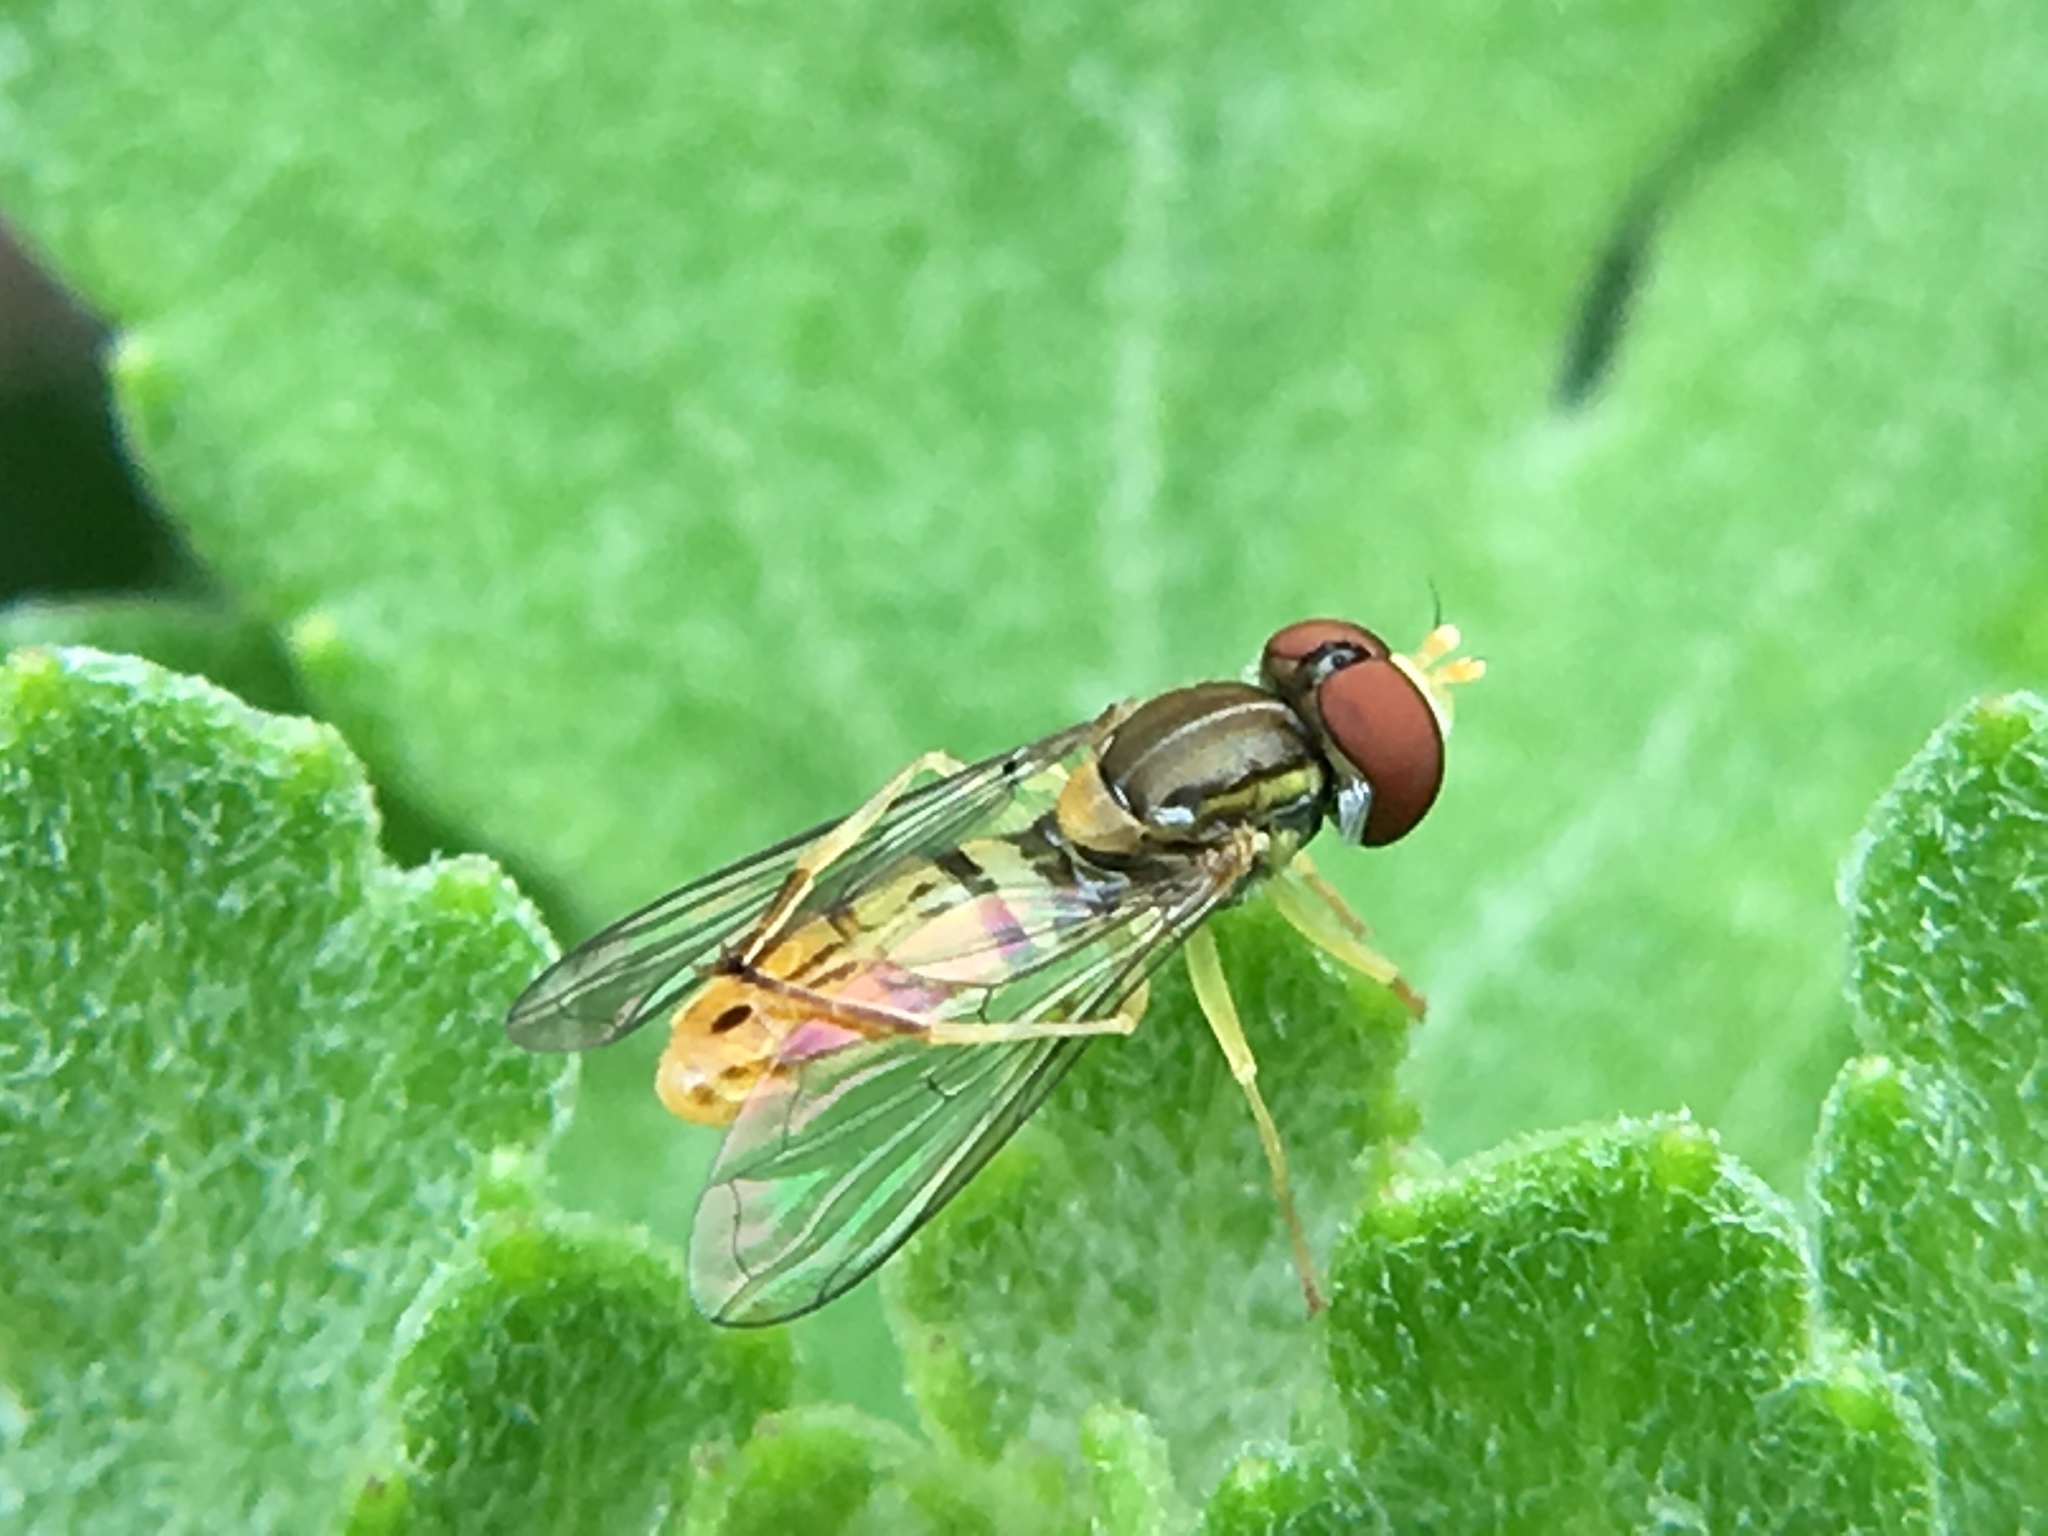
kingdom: Animalia
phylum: Arthropoda
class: Insecta
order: Diptera
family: Syrphidae
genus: Toxomerus
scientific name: Toxomerus marginatus
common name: Syrphid fly
